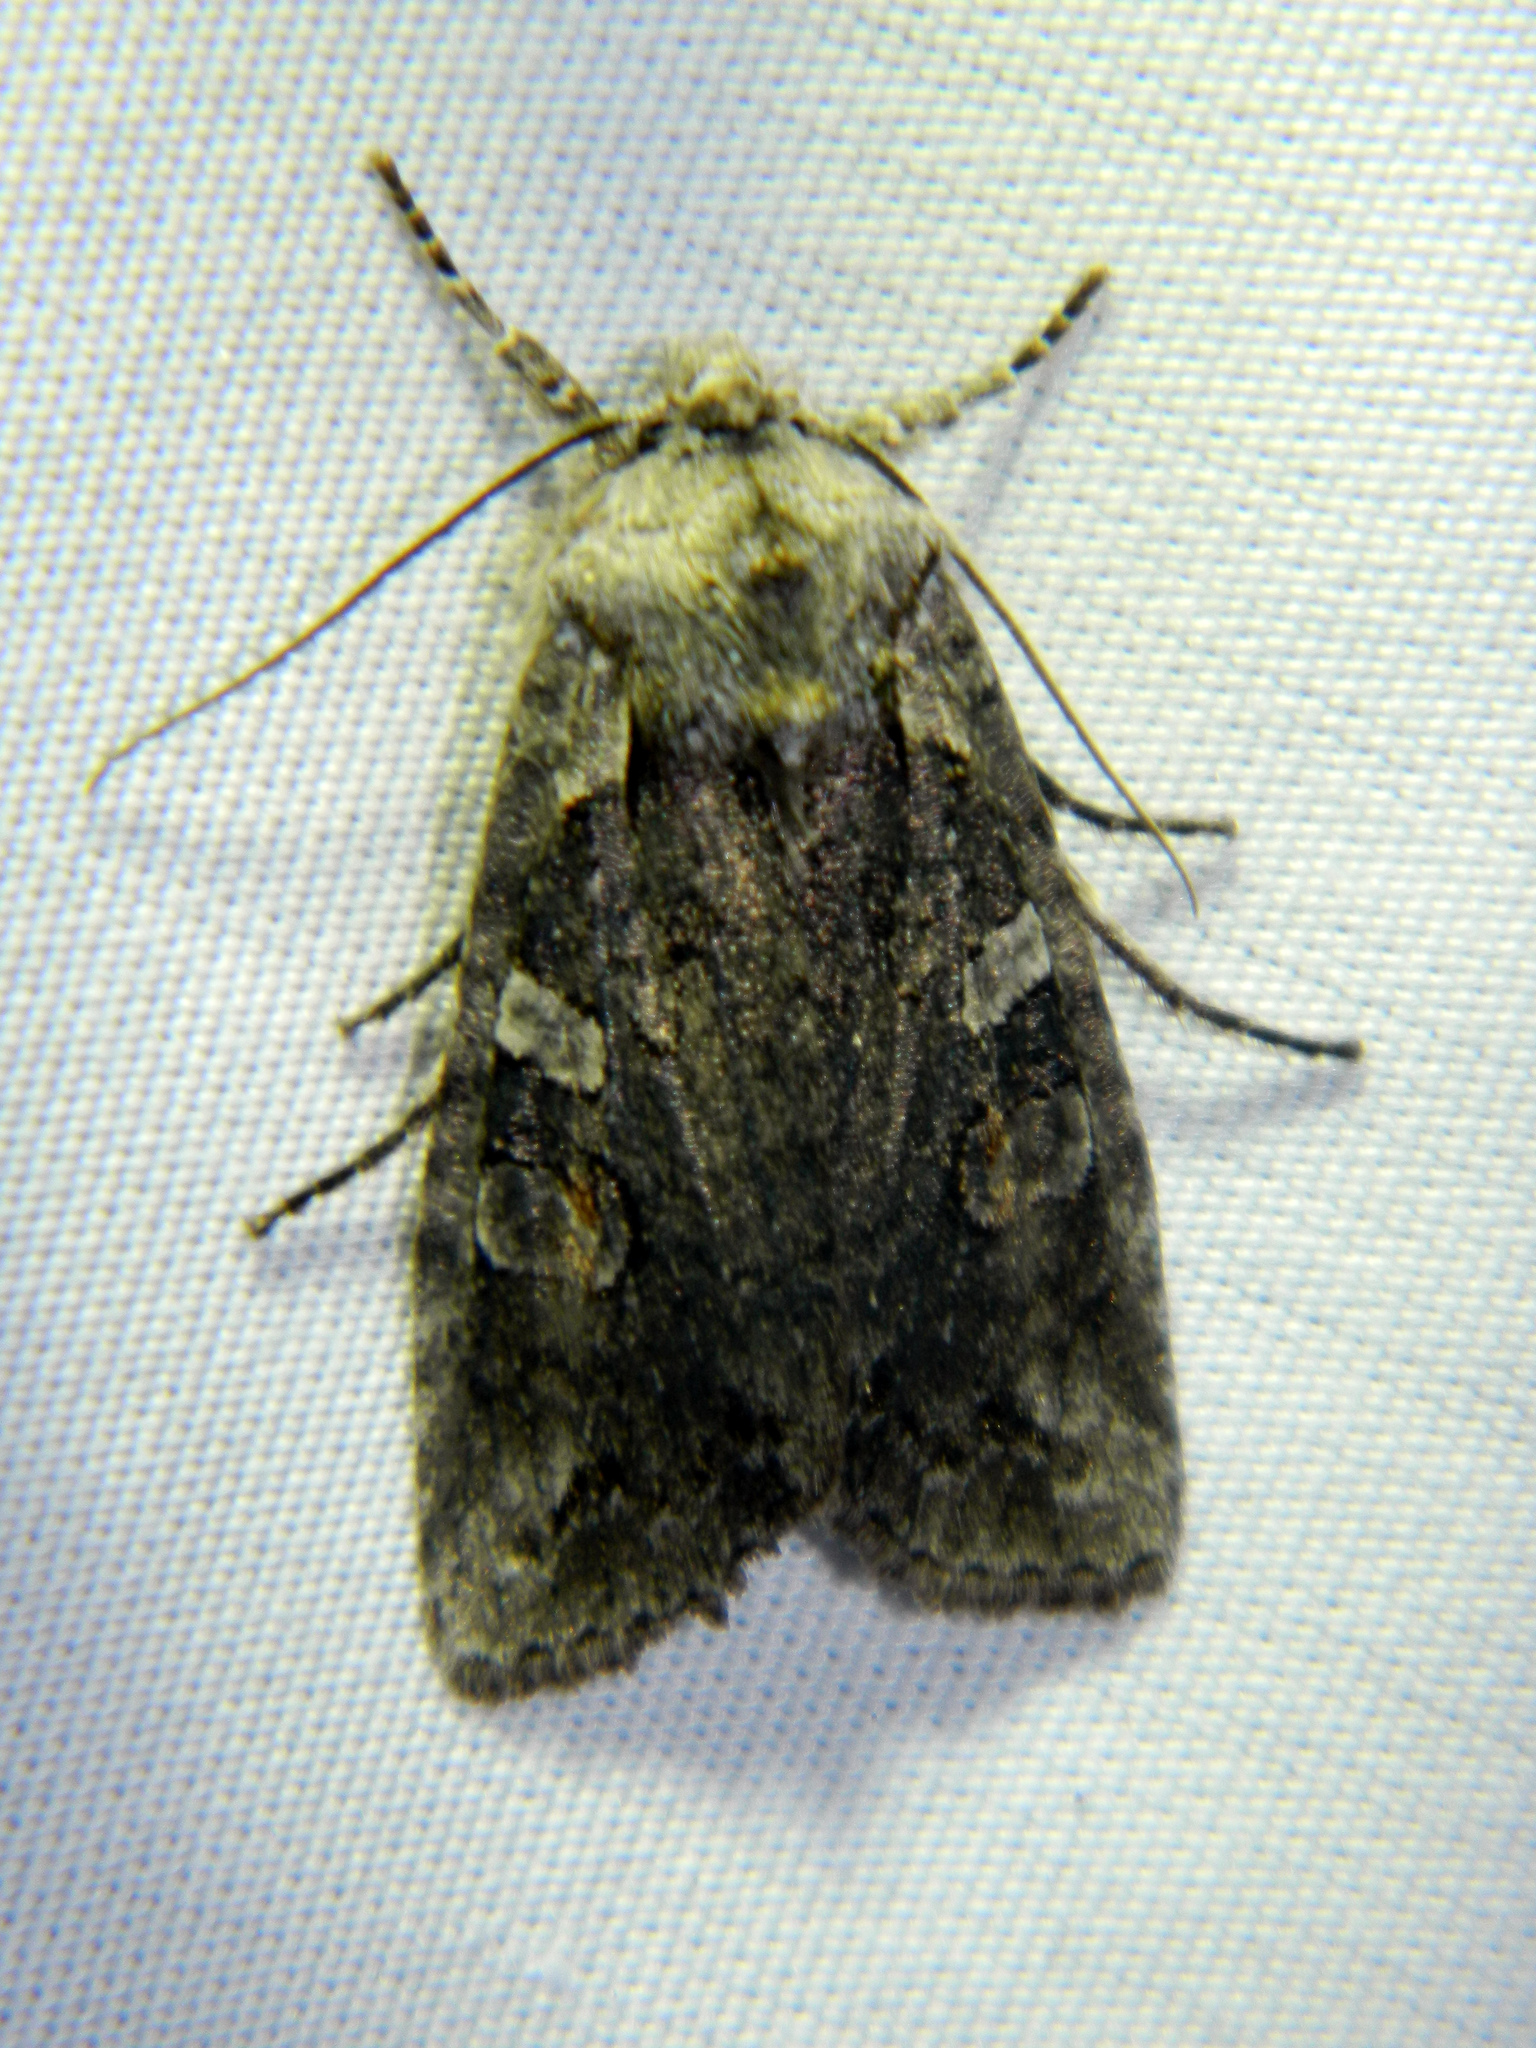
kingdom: Animalia
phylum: Arthropoda
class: Insecta
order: Lepidoptera
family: Noctuidae
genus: Lithophane
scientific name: Lithophane baileyi
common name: Bailey's pinion moth
